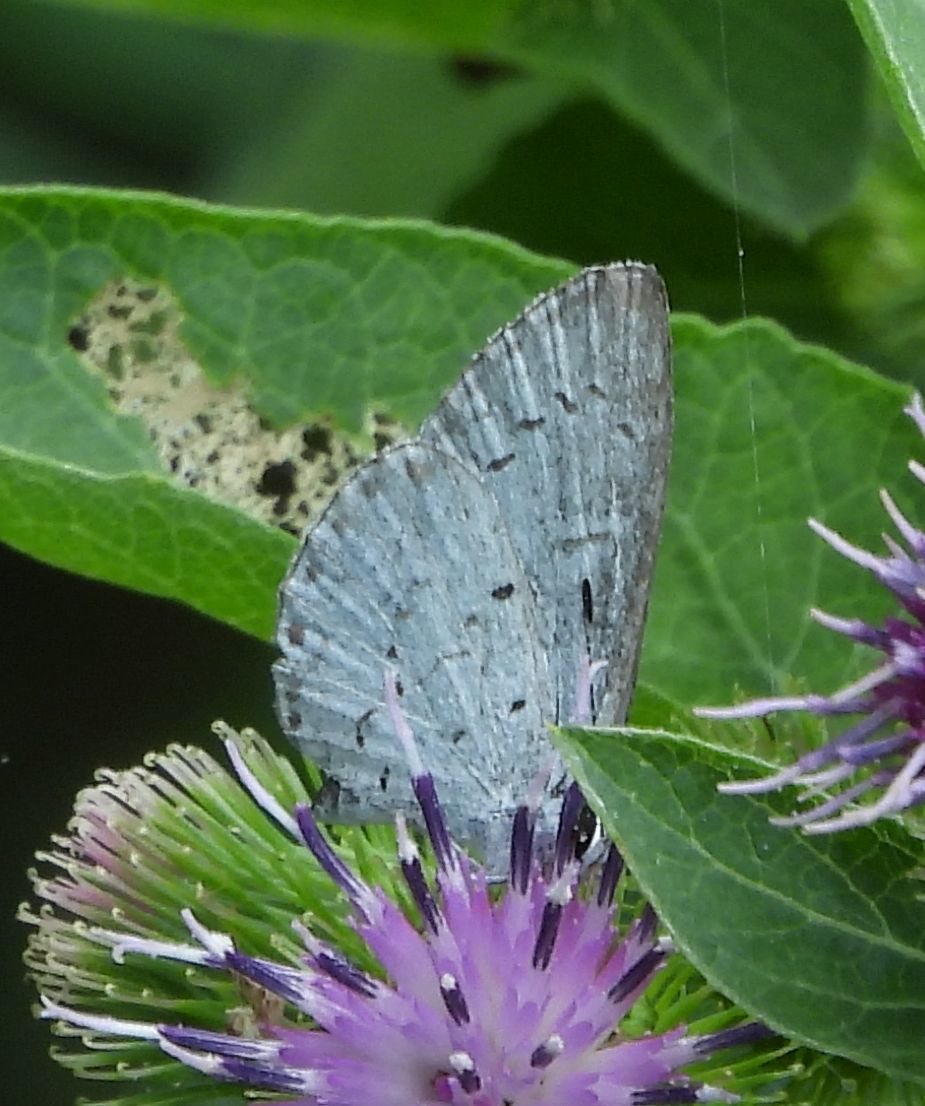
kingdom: Animalia
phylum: Arthropoda
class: Insecta
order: Lepidoptera
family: Lycaenidae
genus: Celastrina
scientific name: Celastrina
